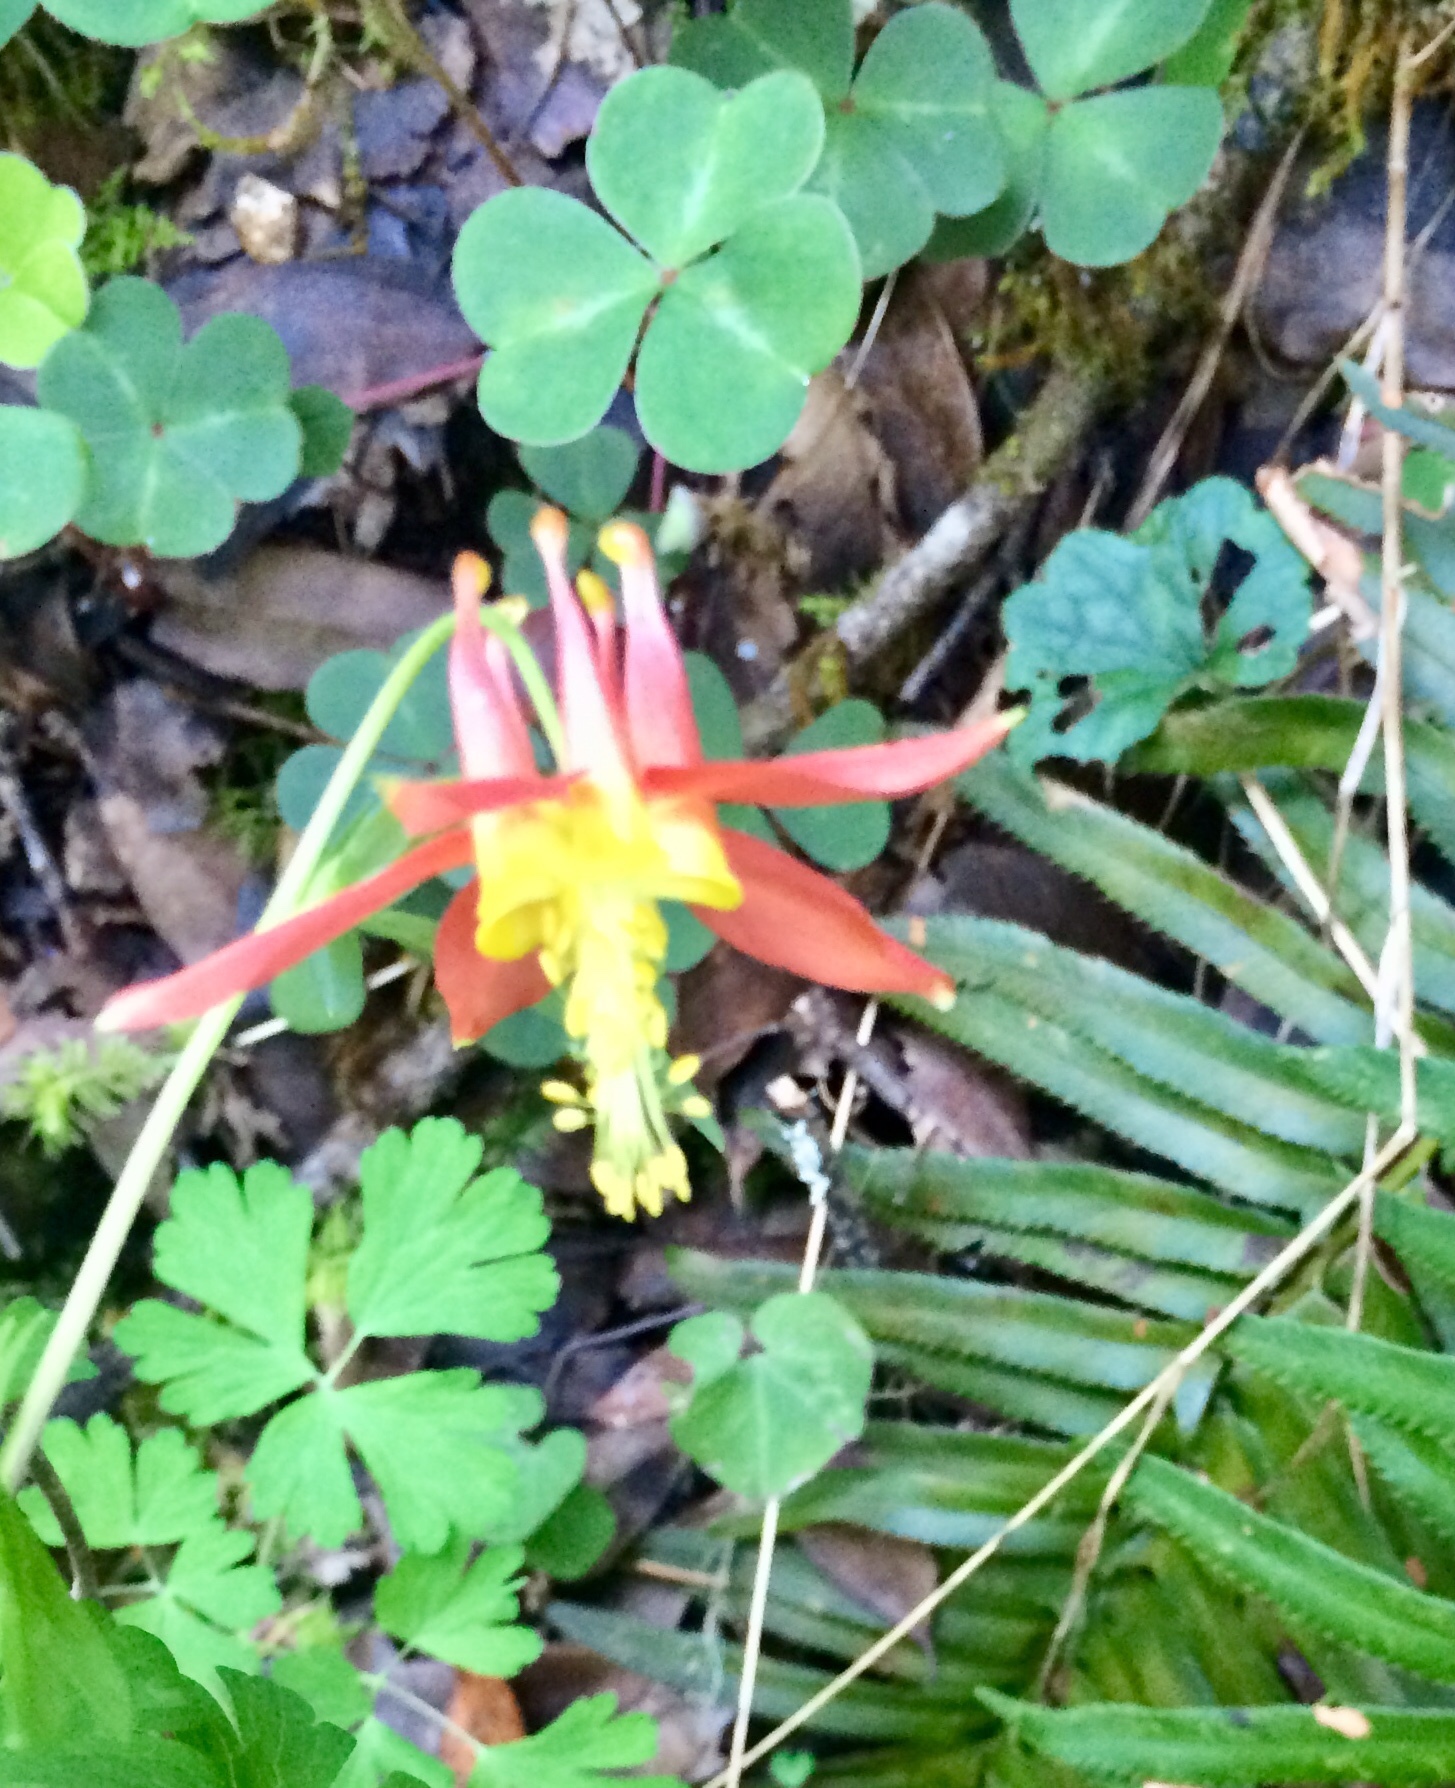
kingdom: Plantae
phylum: Tracheophyta
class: Magnoliopsida
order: Ranunculales
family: Ranunculaceae
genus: Aquilegia
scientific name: Aquilegia formosa
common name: Sitka columbine
